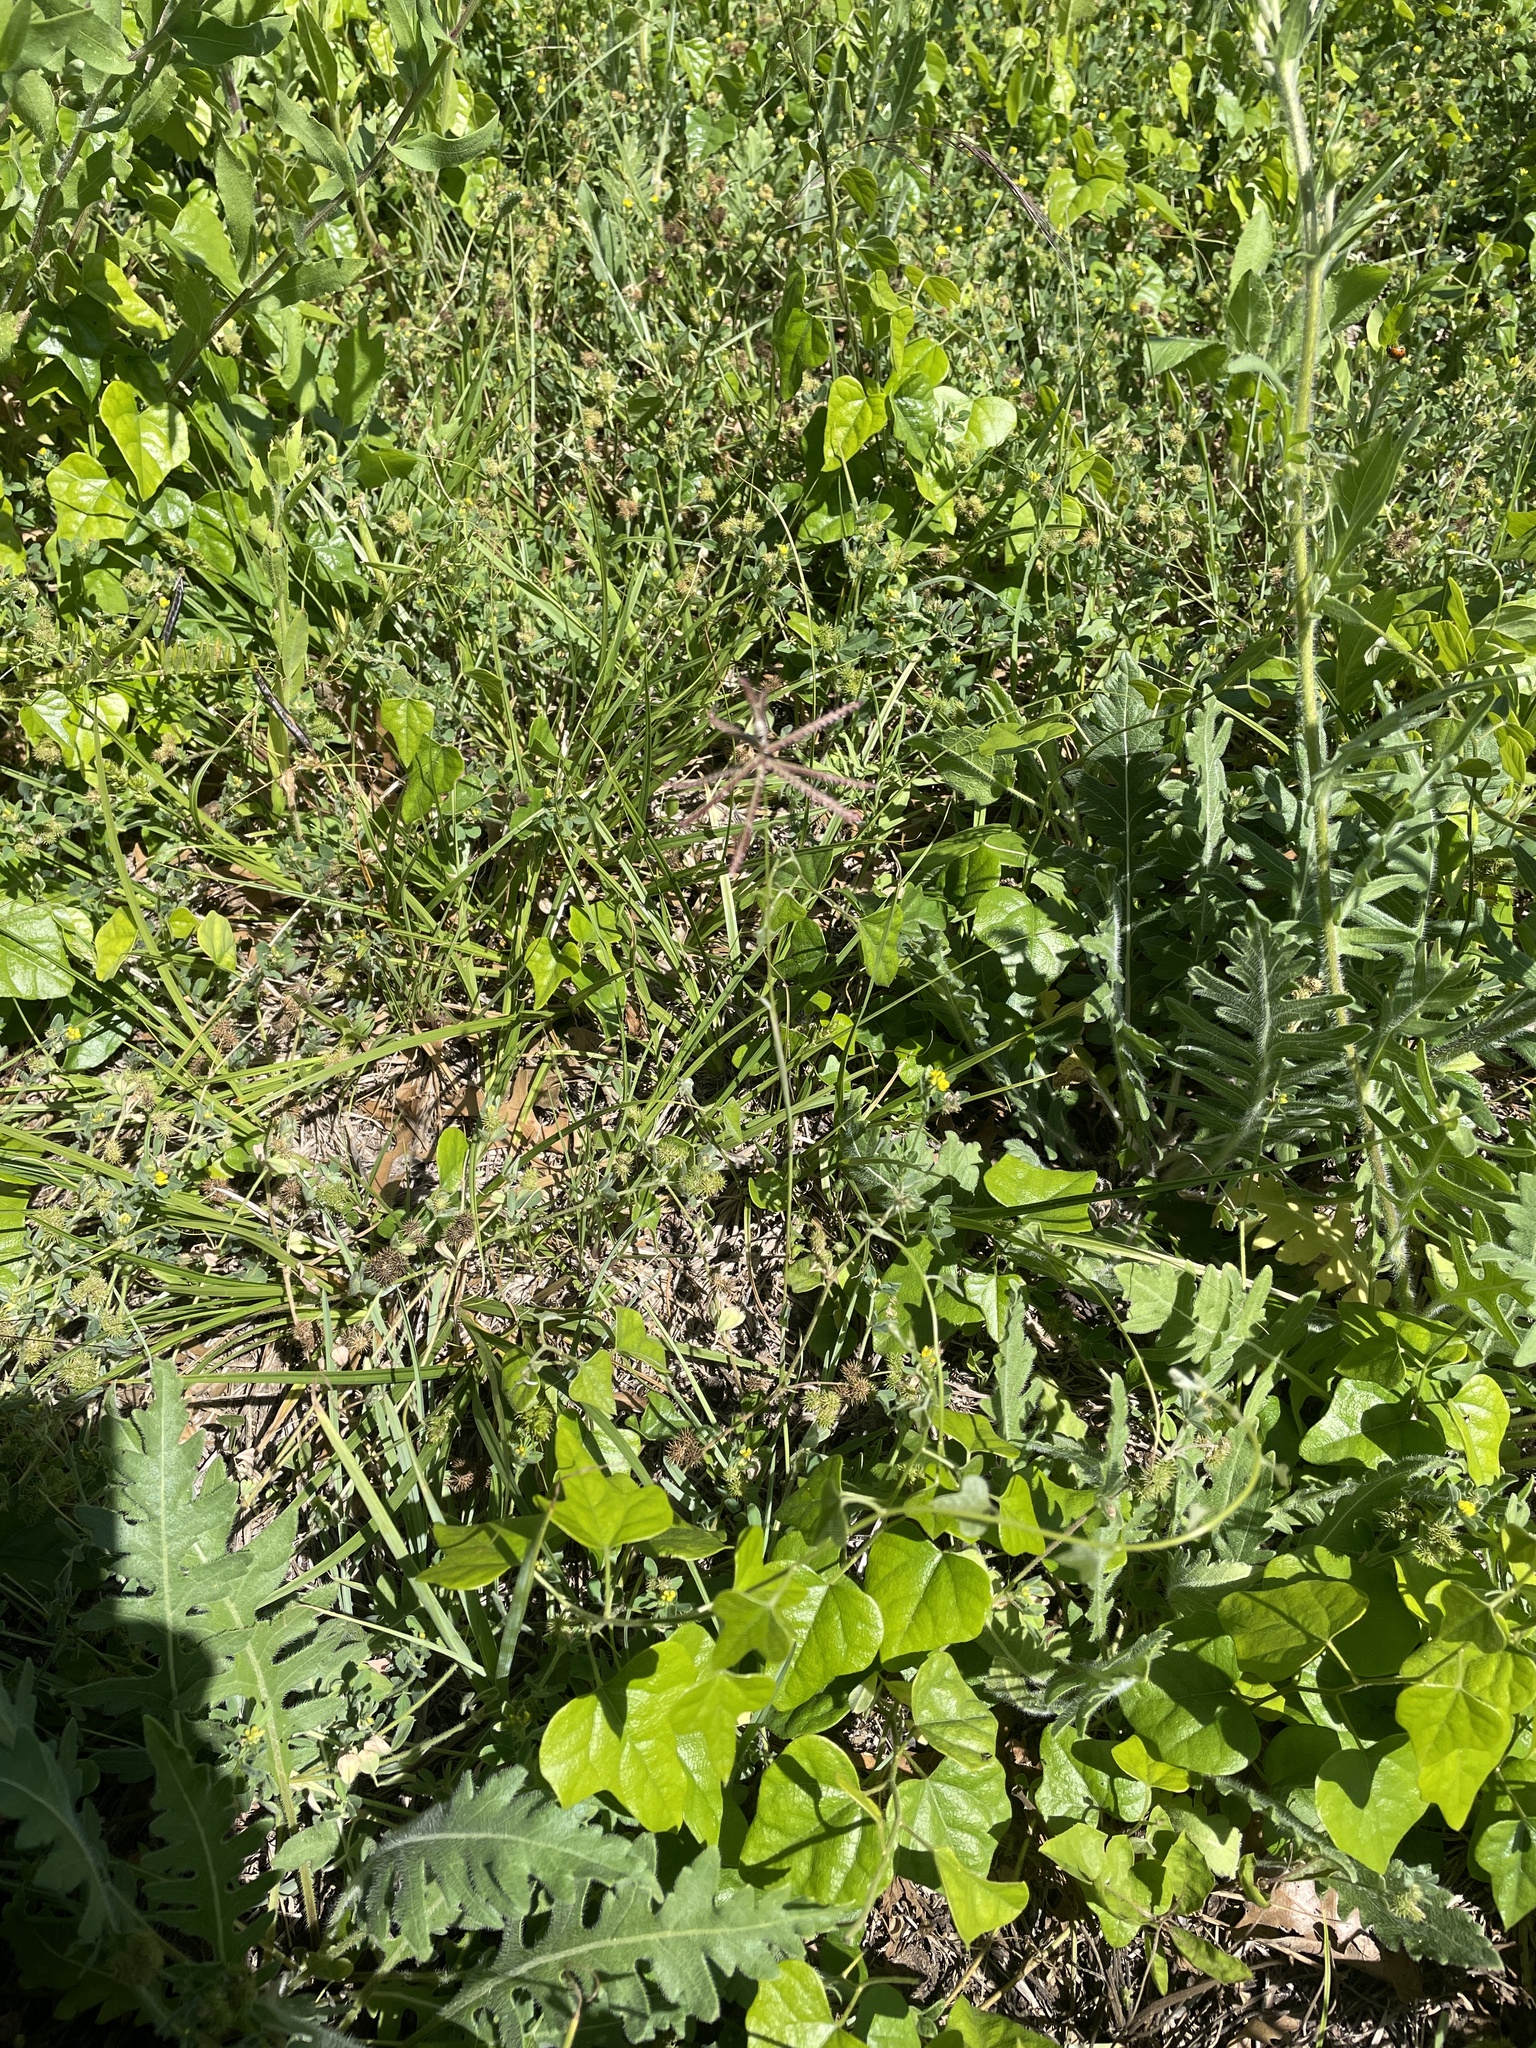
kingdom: Plantae
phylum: Tracheophyta
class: Liliopsida
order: Poales
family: Poaceae
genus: Chloris
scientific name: Chloris cucullata
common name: Hooded windmill grass
